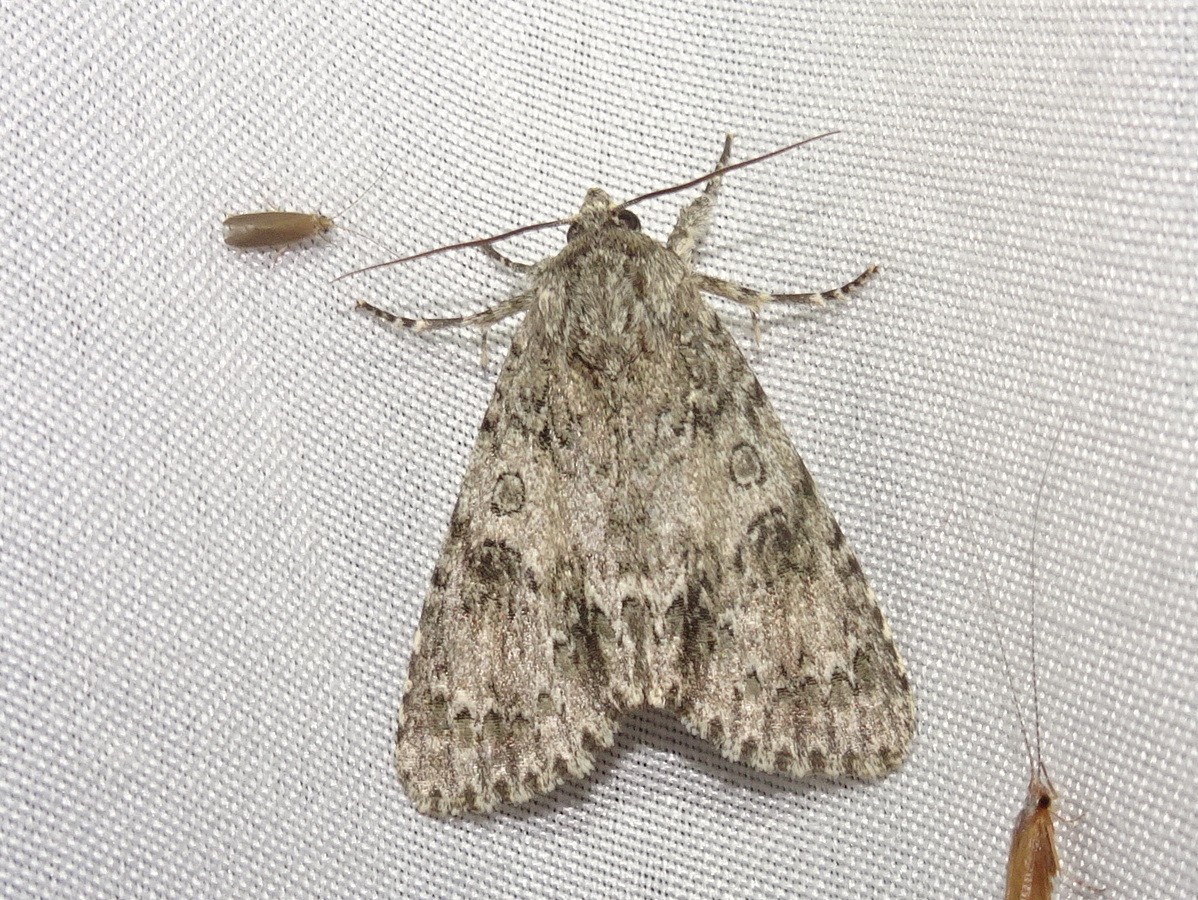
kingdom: Animalia
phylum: Arthropoda
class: Insecta
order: Lepidoptera
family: Noctuidae
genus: Acronicta
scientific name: Acronicta rubricoma
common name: Hackberry dagger
